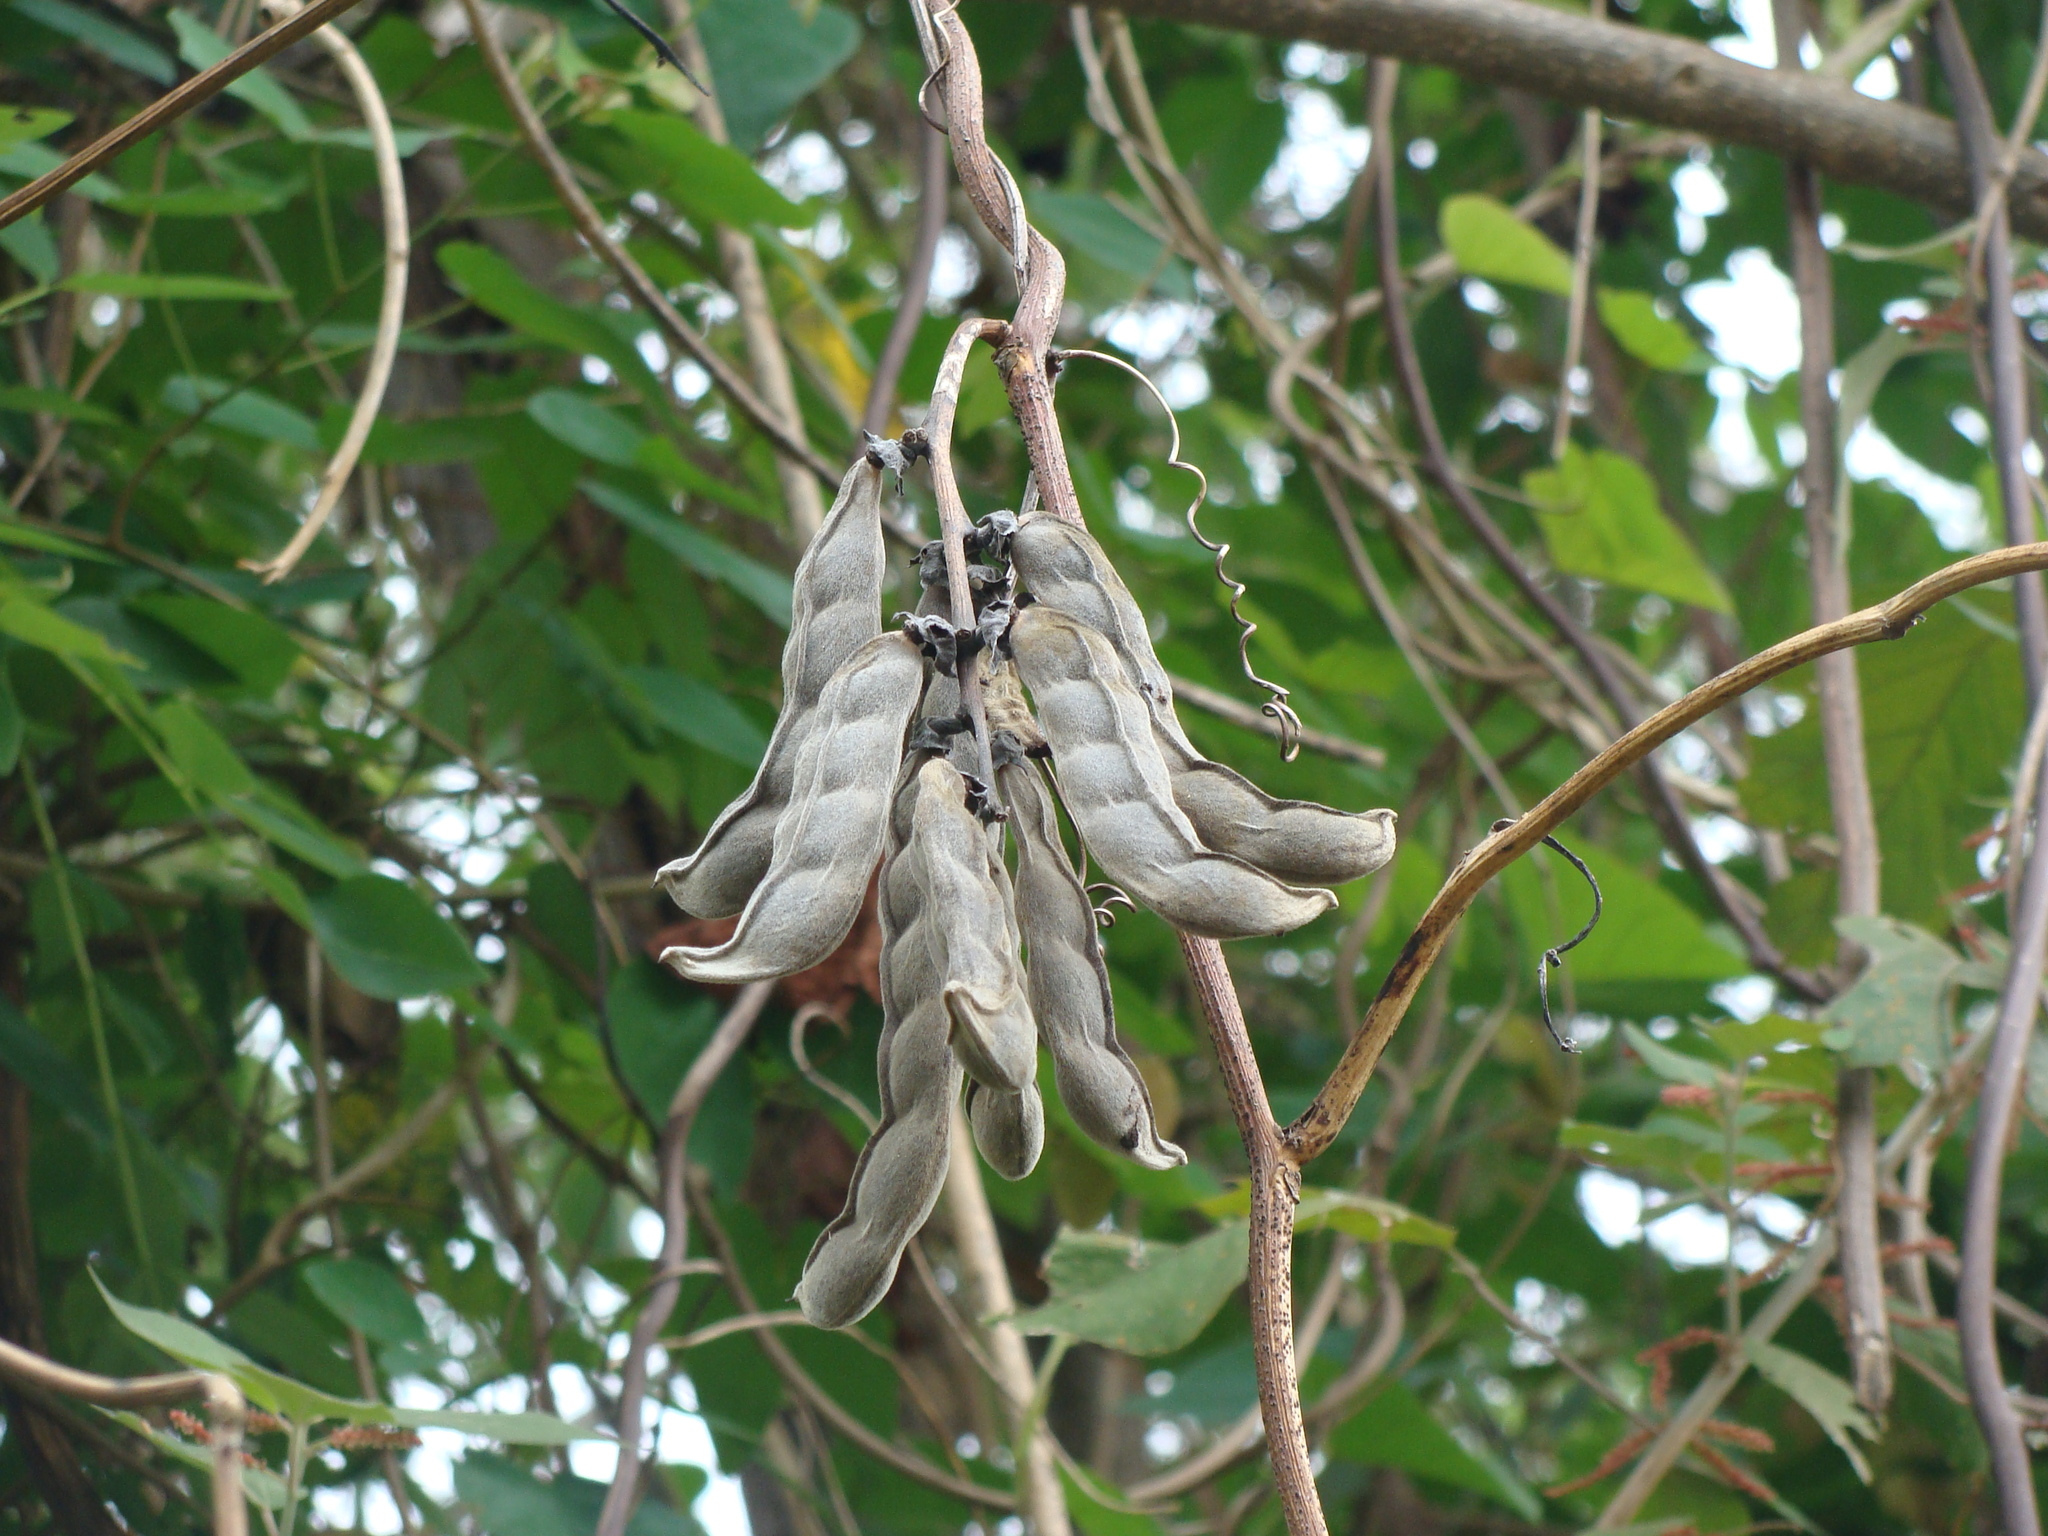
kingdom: Plantae
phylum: Tracheophyta
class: Magnoliopsida
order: Fabales
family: Fabaceae
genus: Mucuna
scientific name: Mucuna pruriens
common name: Cow-itch
